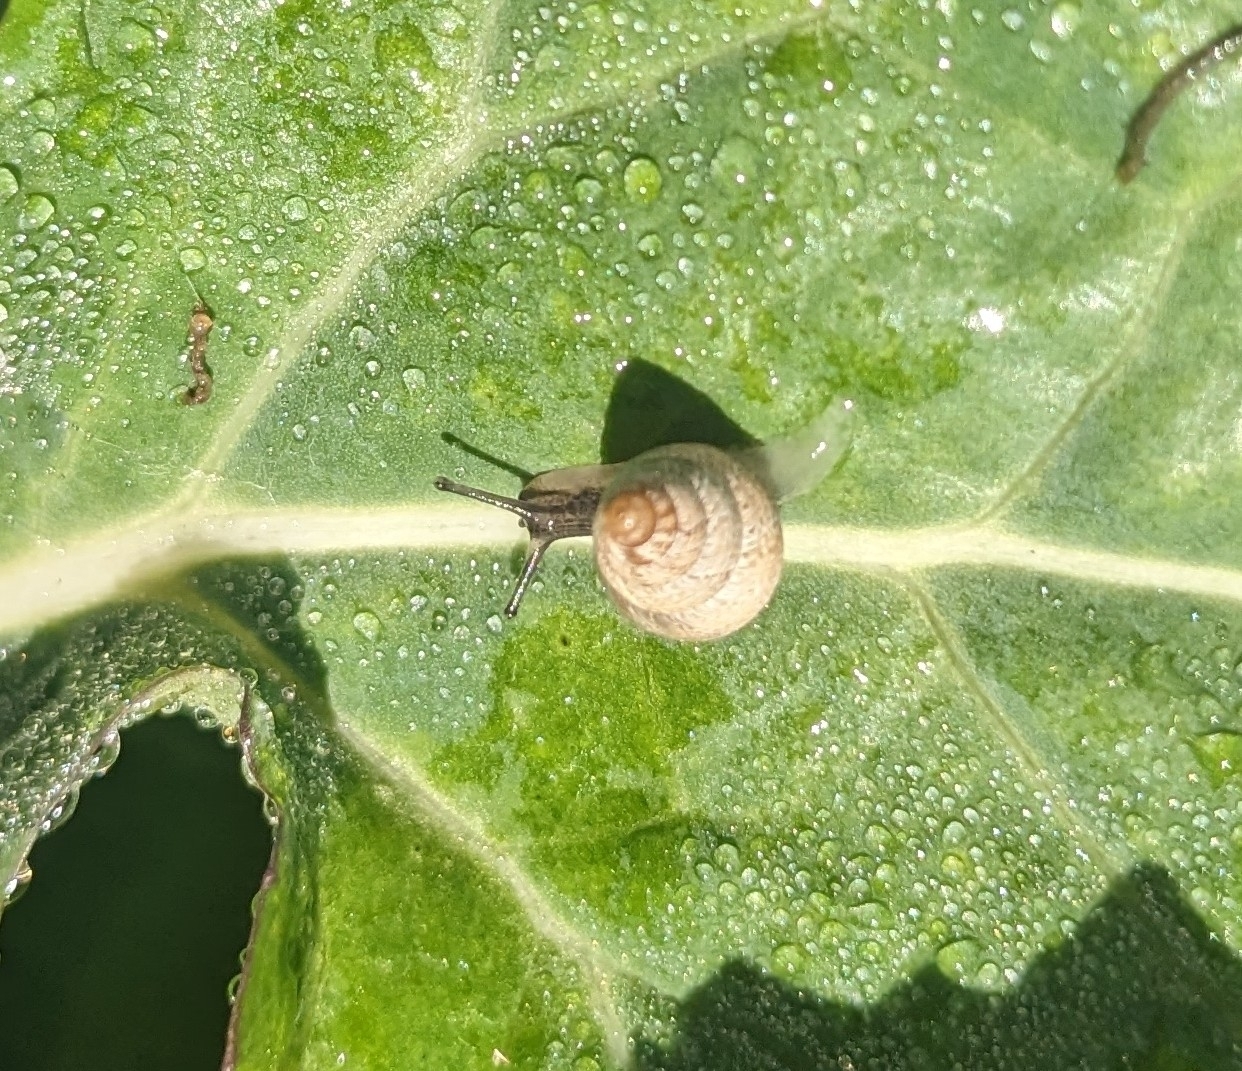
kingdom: Animalia
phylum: Mollusca
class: Gastropoda
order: Stylommatophora
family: Geomitridae
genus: Cochlicella
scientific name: Cochlicella barbara
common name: Potbellied helicellid
